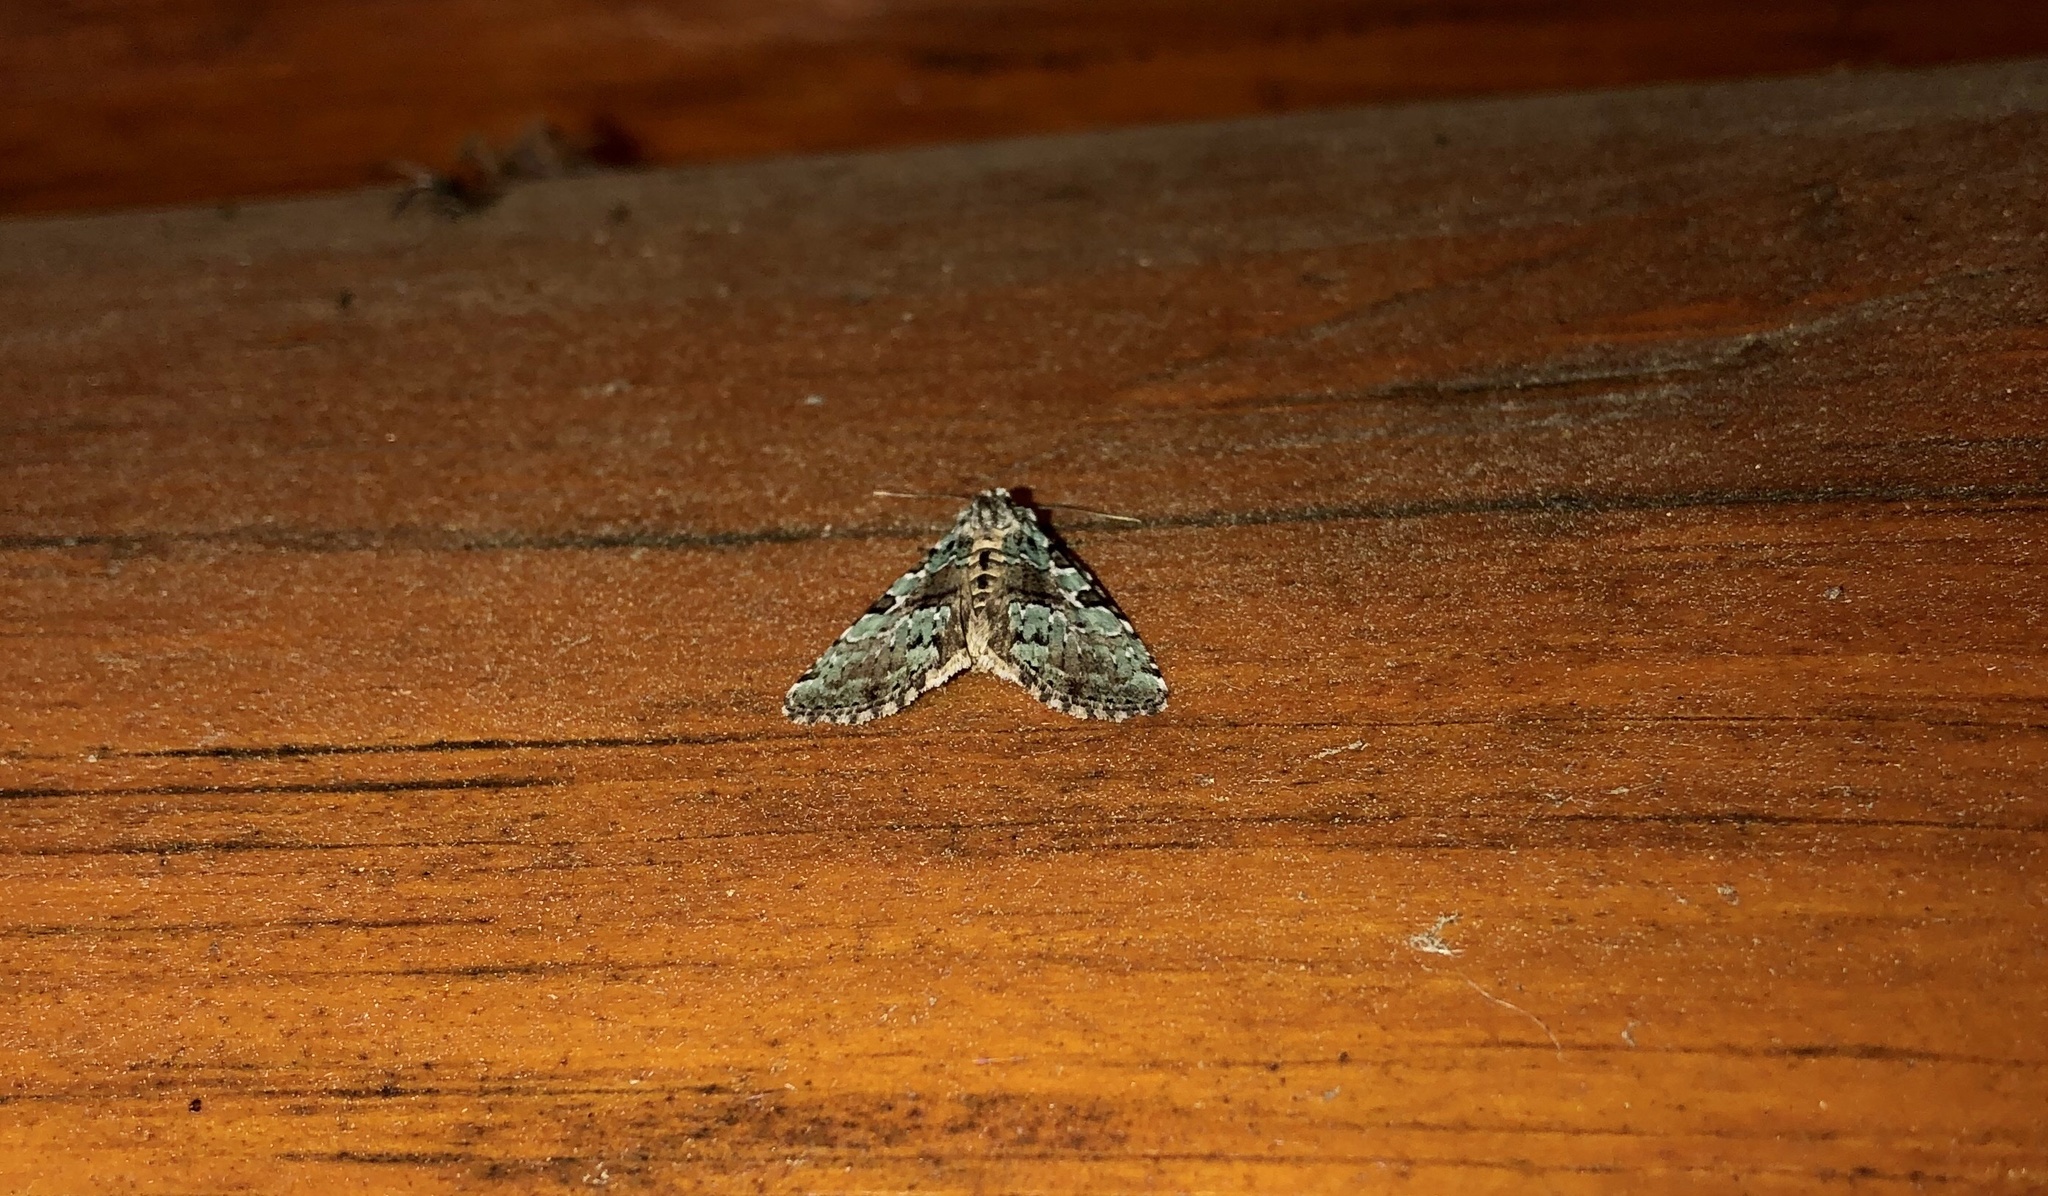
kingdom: Animalia
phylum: Arthropoda
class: Insecta
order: Lepidoptera
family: Noctuidae
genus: Leuconycta
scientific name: Leuconycta lepidula
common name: Marbled-green leuconycta moth
